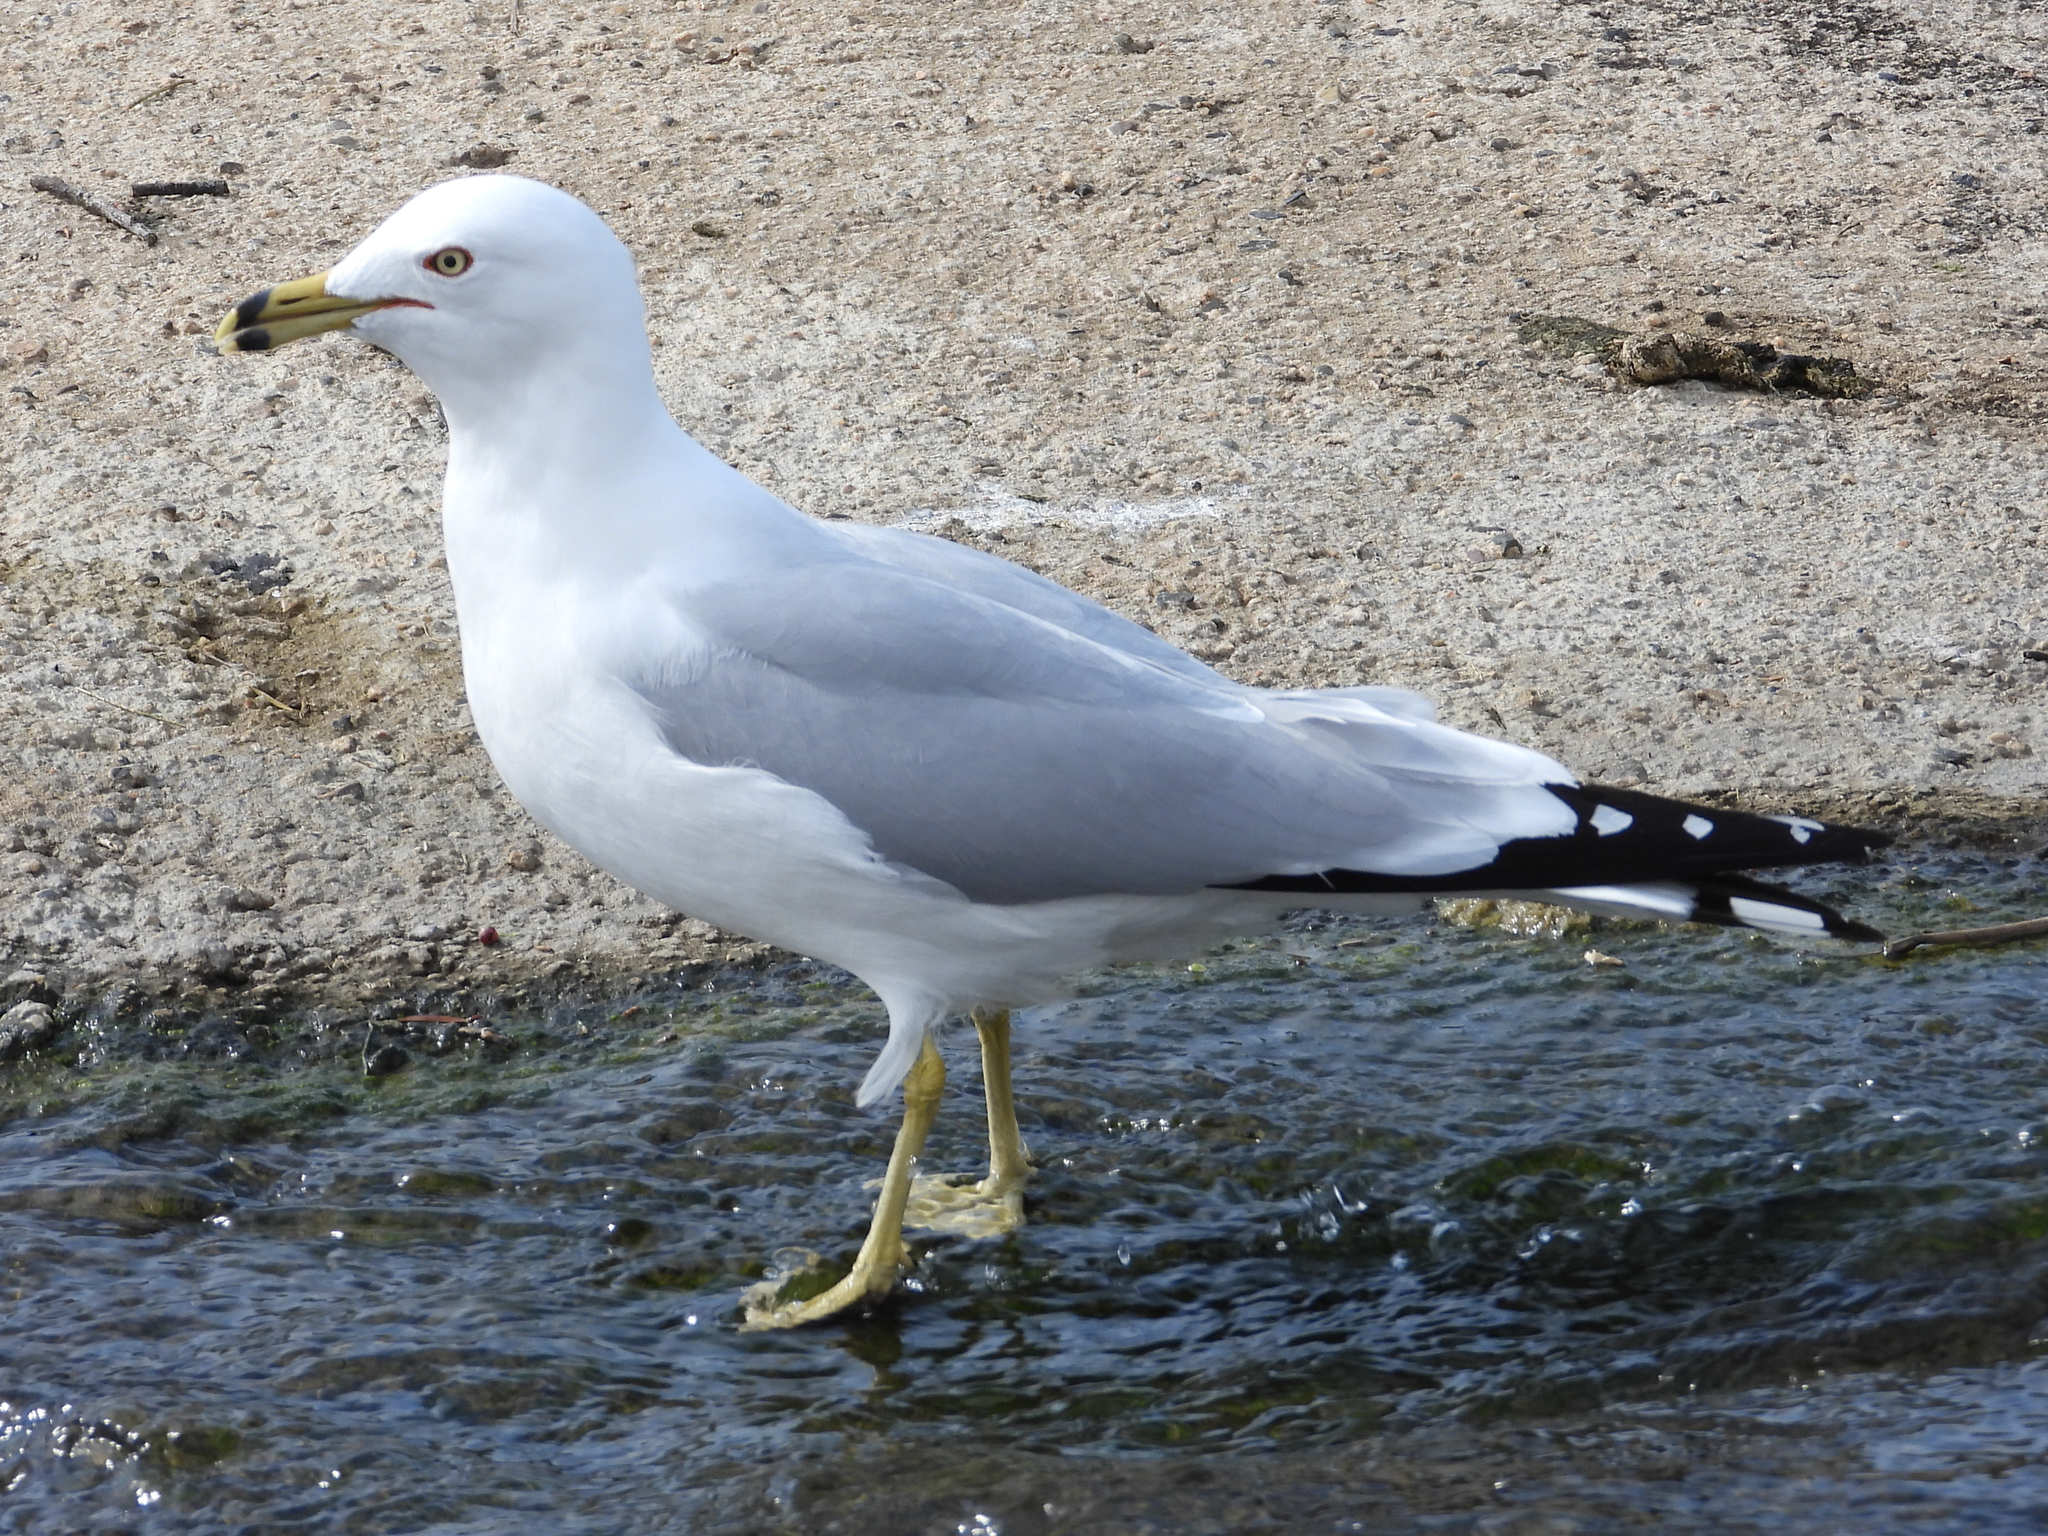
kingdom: Animalia
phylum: Chordata
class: Aves
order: Charadriiformes
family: Laridae
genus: Larus
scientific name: Larus delawarensis
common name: Ring-billed gull
